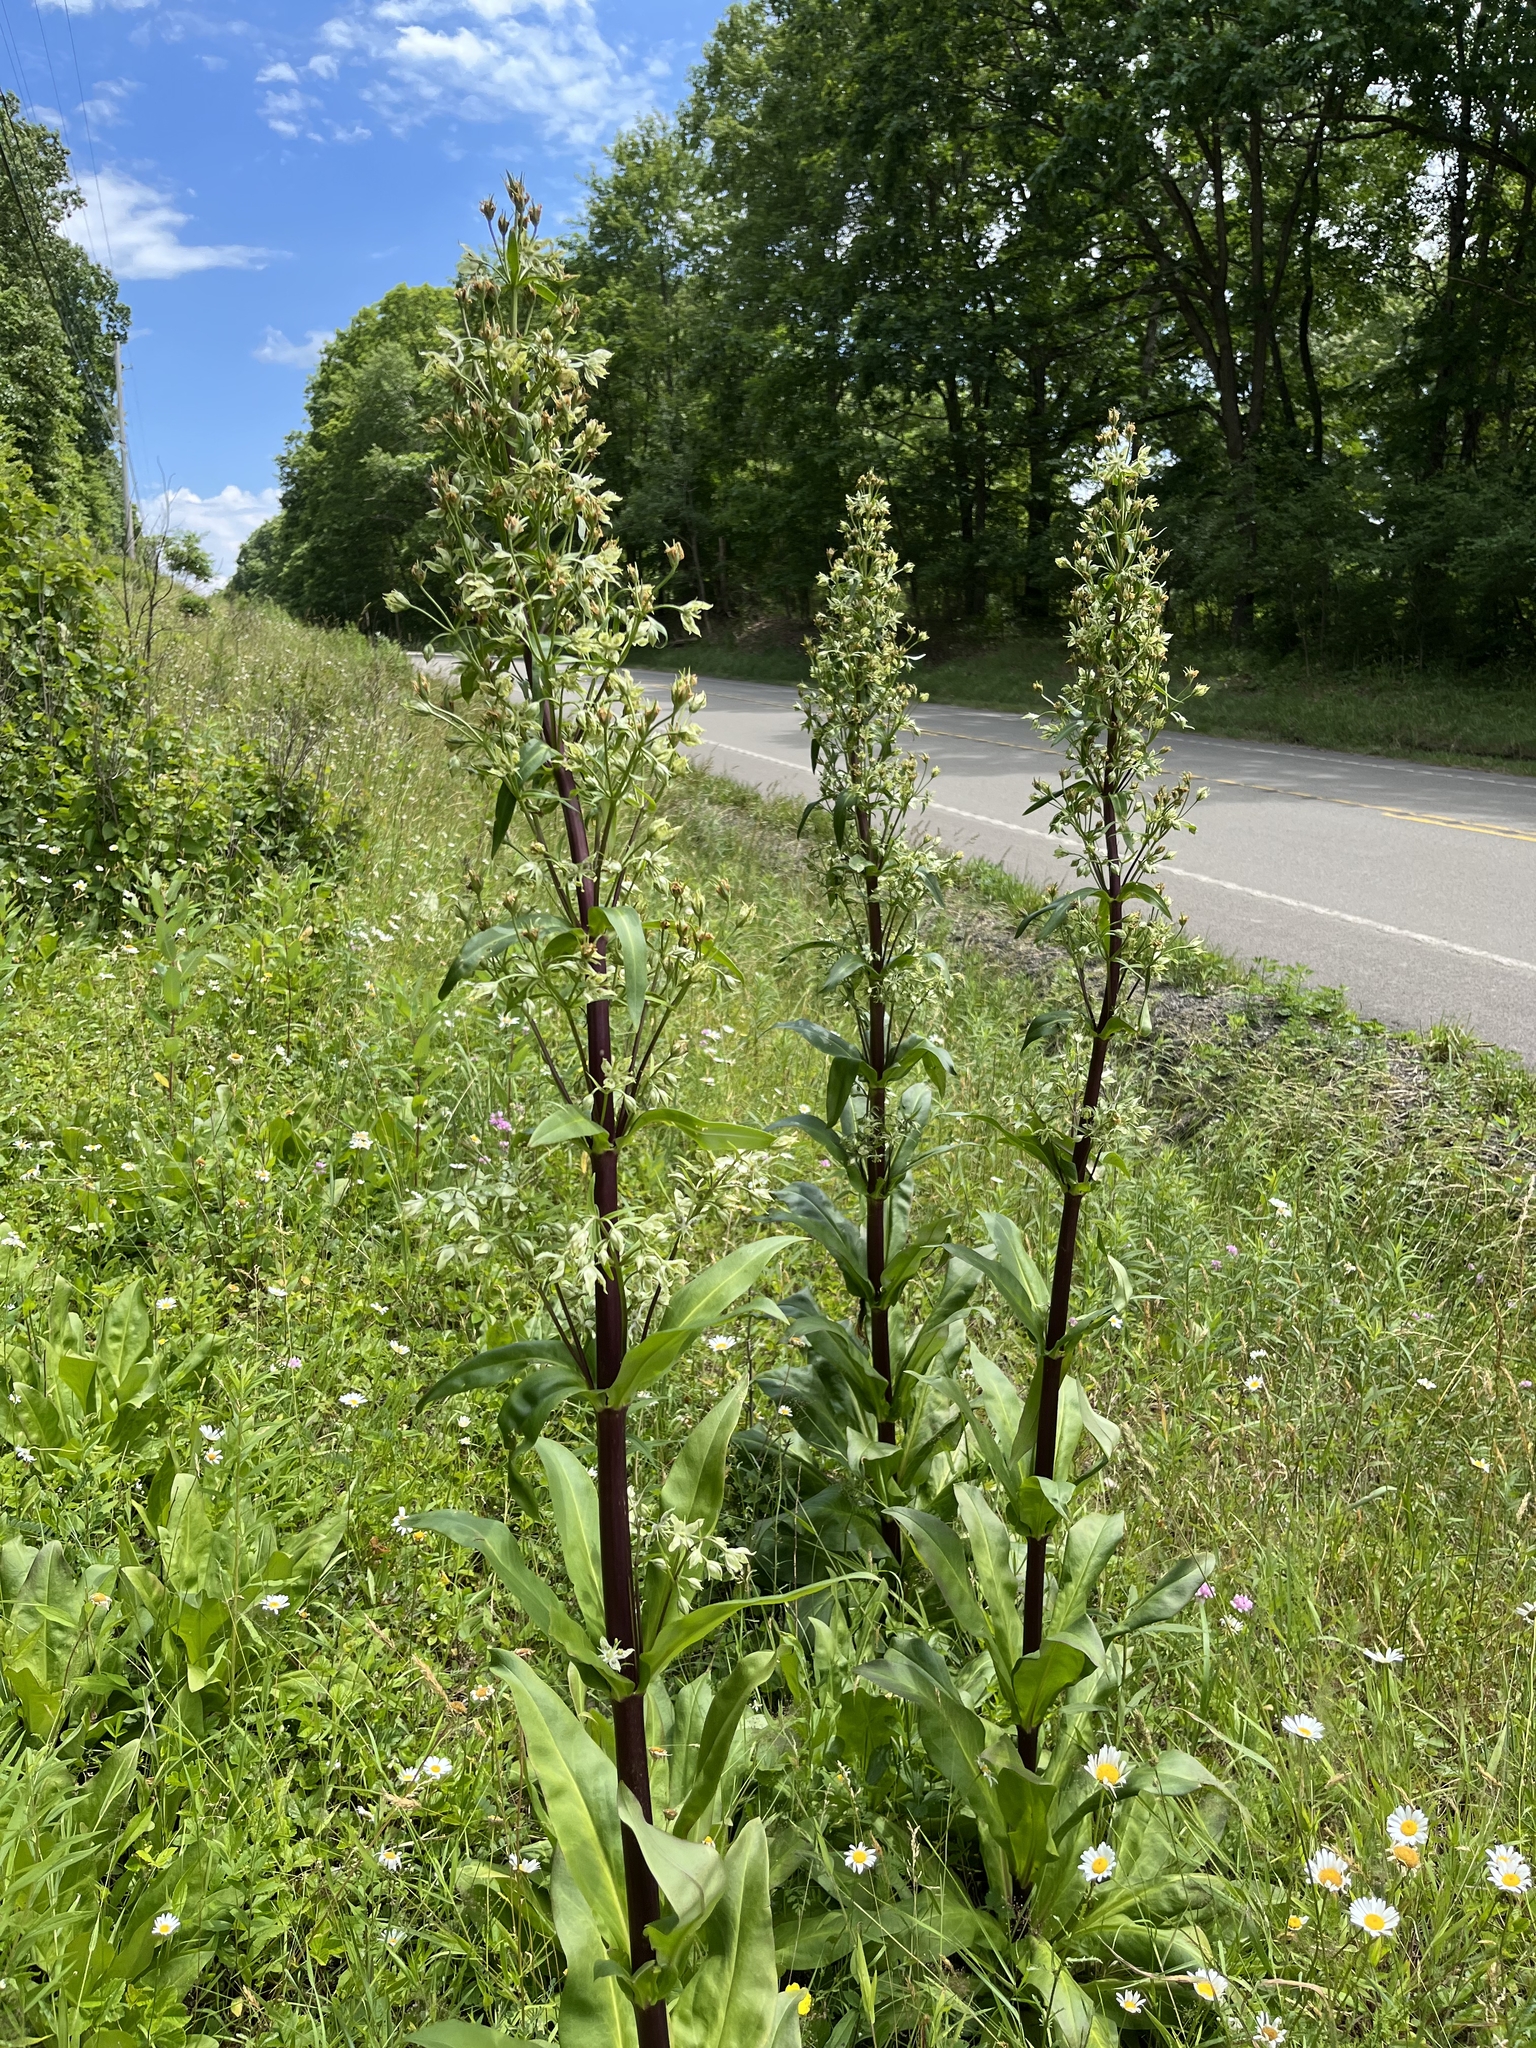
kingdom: Plantae
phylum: Tracheophyta
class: Magnoliopsida
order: Gentianales
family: Gentianaceae
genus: Frasera
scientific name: Frasera caroliniensis
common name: American columbo
